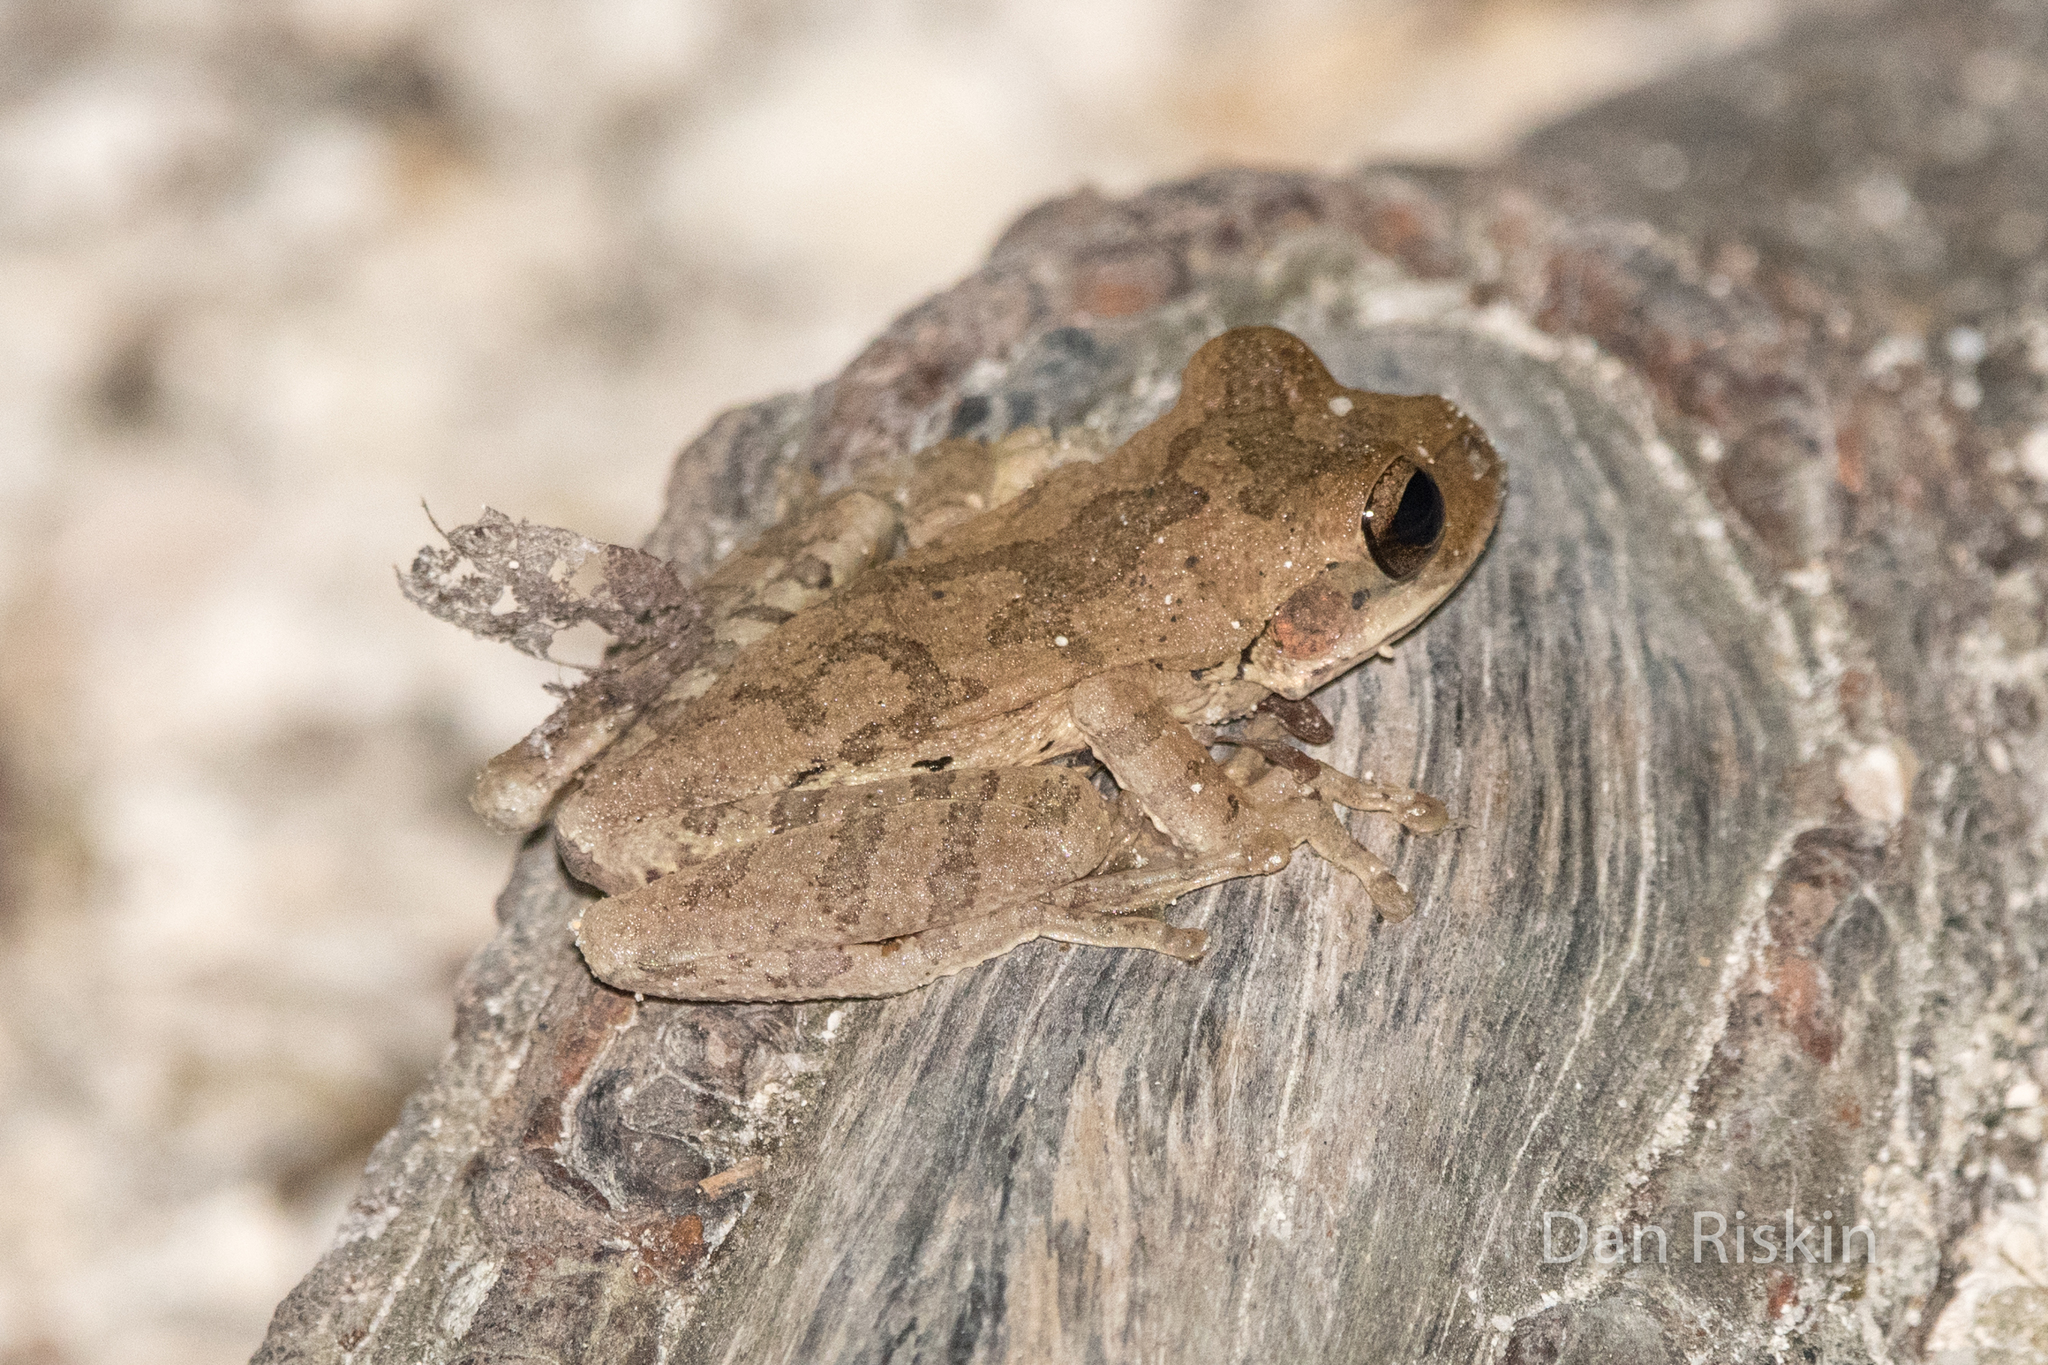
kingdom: Animalia
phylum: Chordata
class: Amphibia
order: Anura
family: Hylidae
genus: Smilisca
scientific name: Smilisca baudinii
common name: Mexican smilisca
